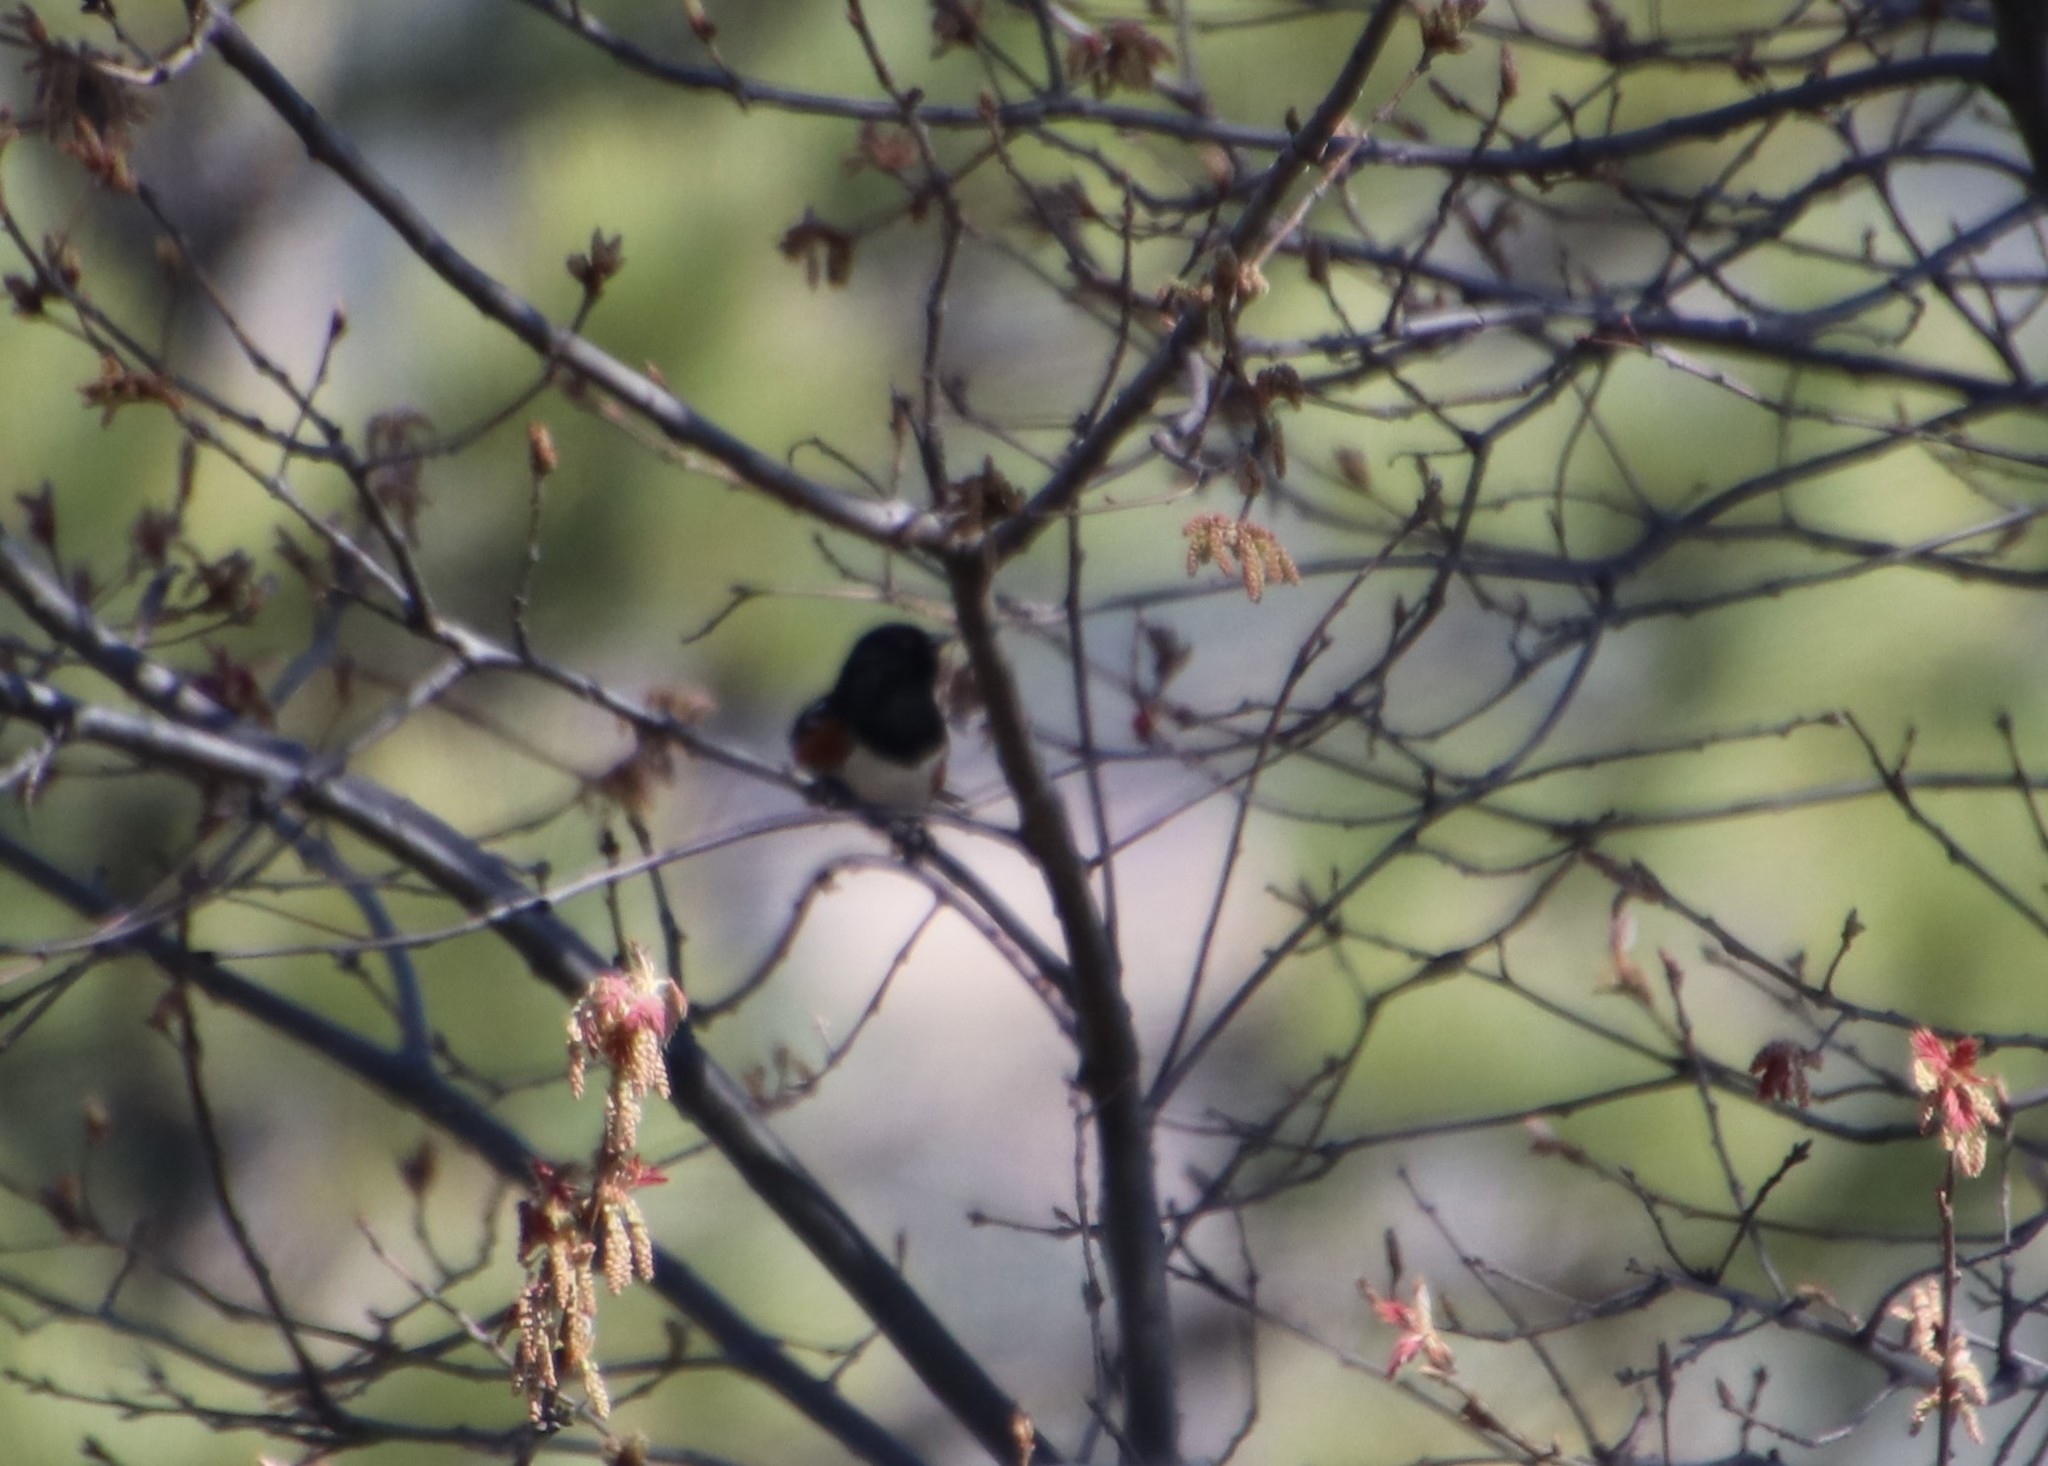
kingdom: Animalia
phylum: Chordata
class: Aves
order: Passeriformes
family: Passerellidae
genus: Pipilo
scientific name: Pipilo maculatus
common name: Spotted towhee
